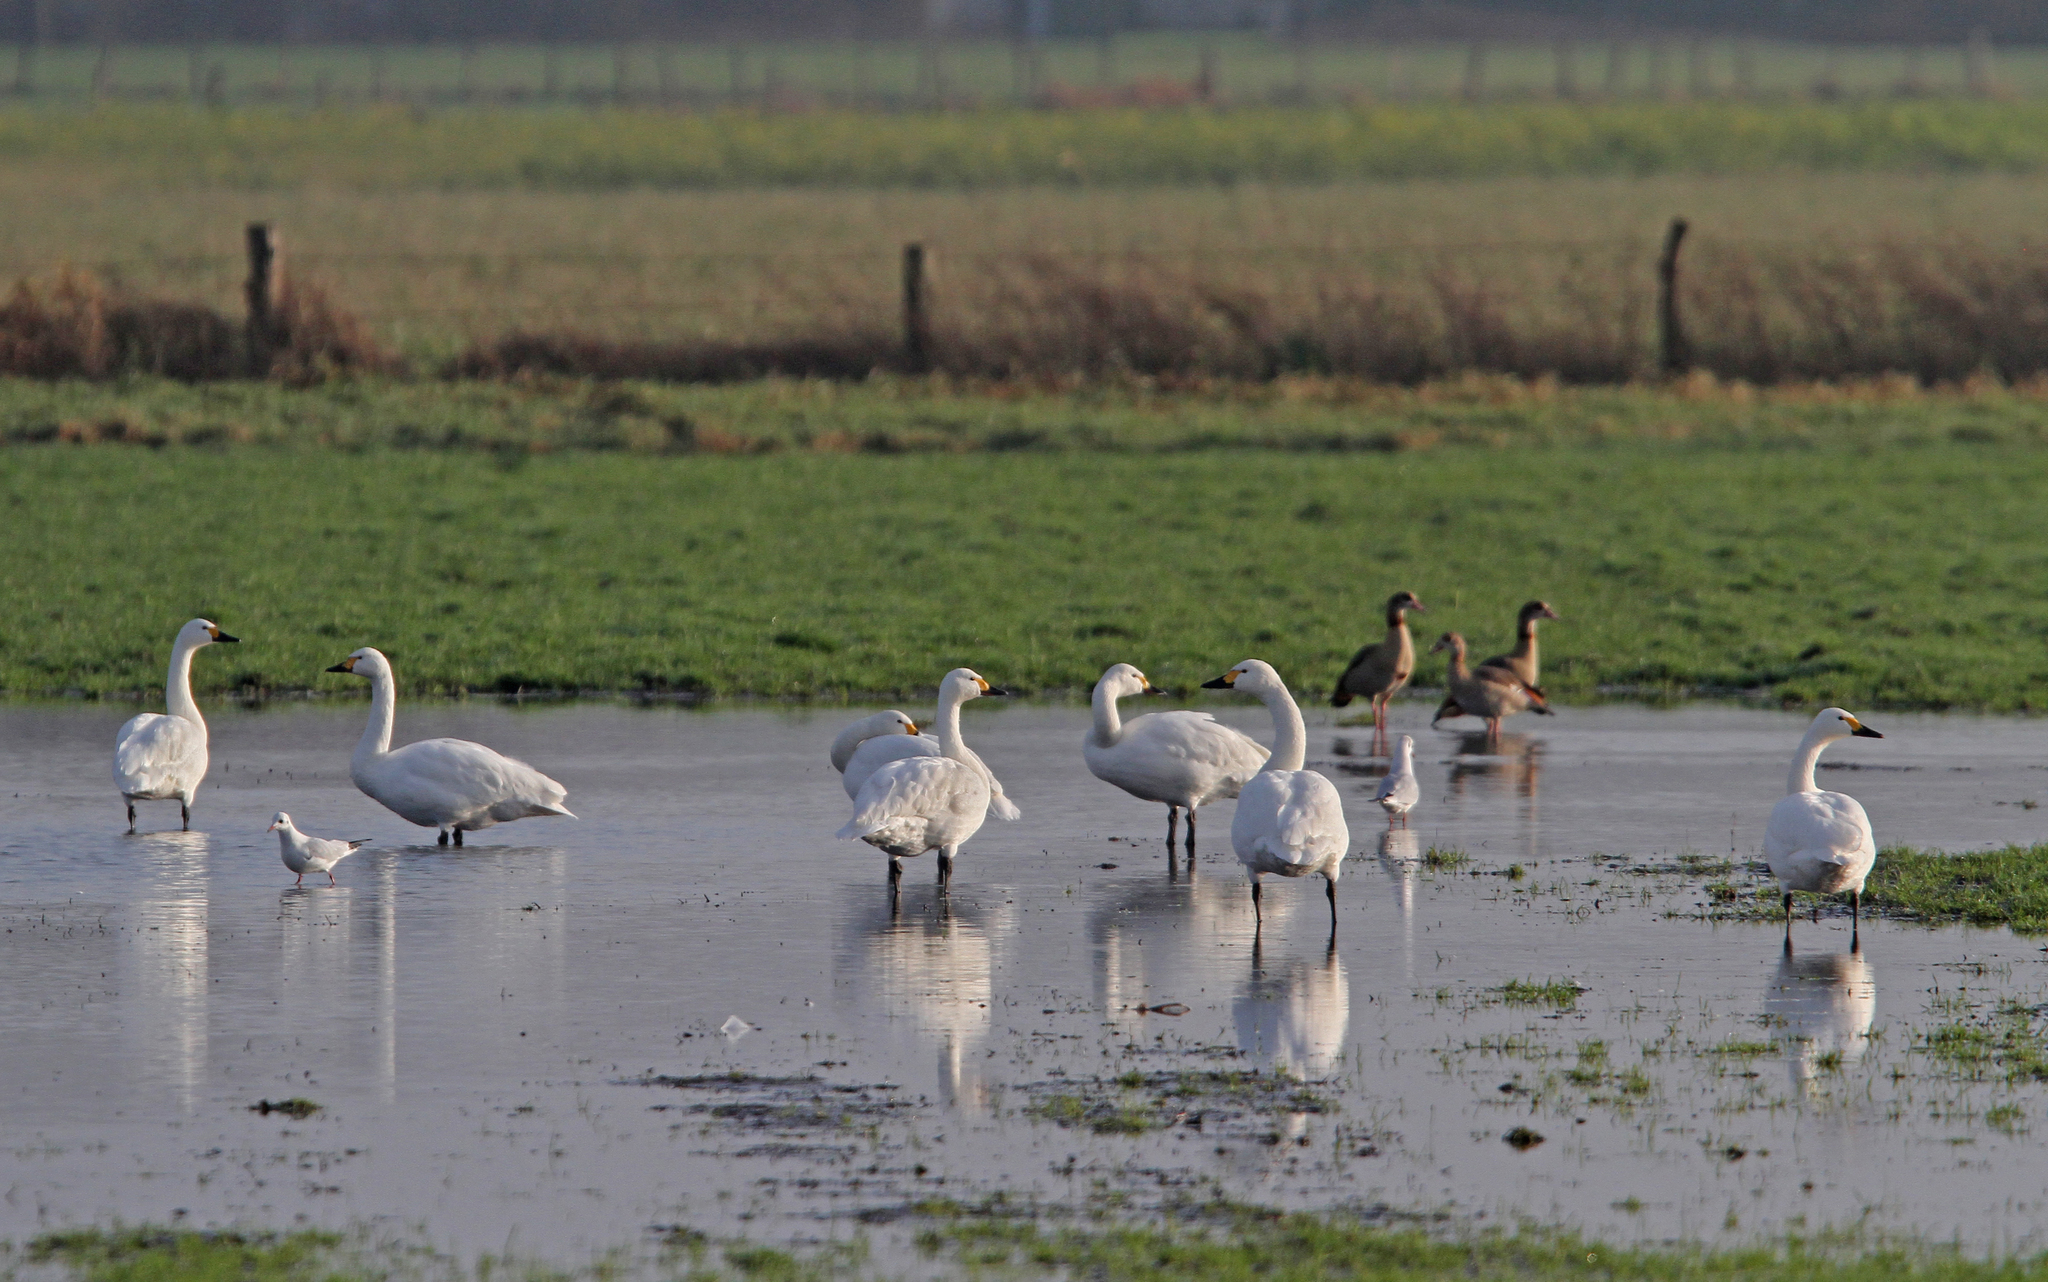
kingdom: Animalia
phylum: Chordata
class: Aves
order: Anseriformes
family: Anatidae
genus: Cygnus
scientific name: Cygnus columbianus
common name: Tundra swan
